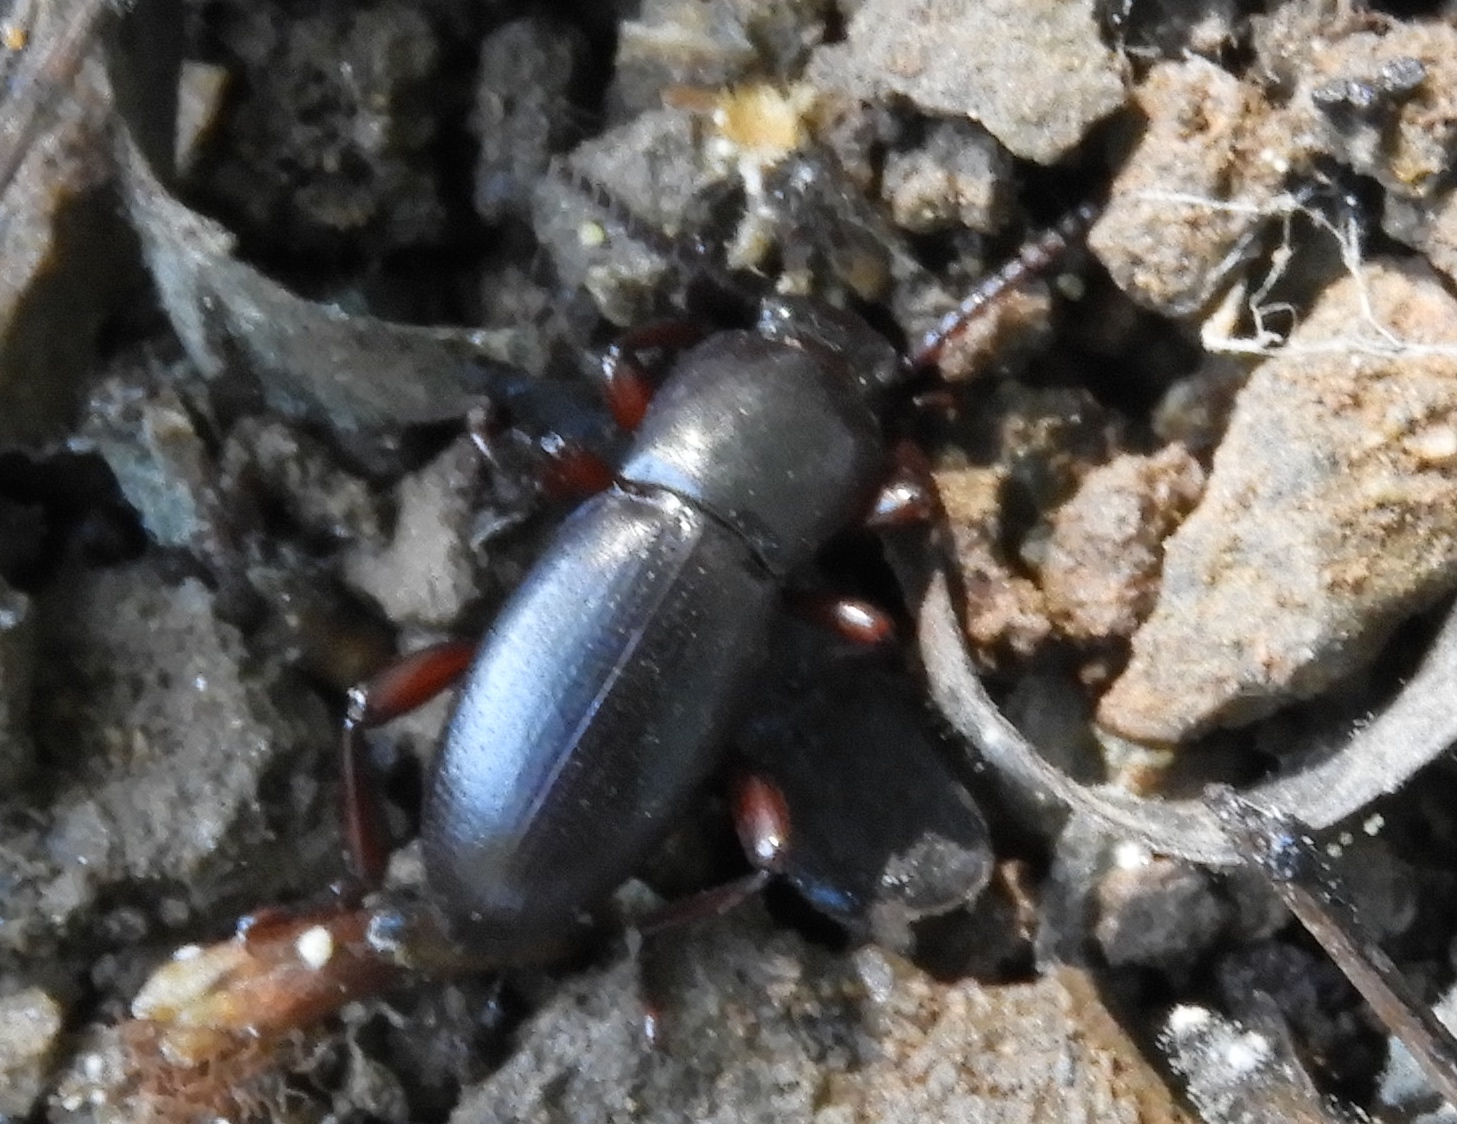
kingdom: Animalia
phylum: Arthropoda
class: Insecta
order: Coleoptera
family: Tenebrionidae
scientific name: Tenebrionidae
